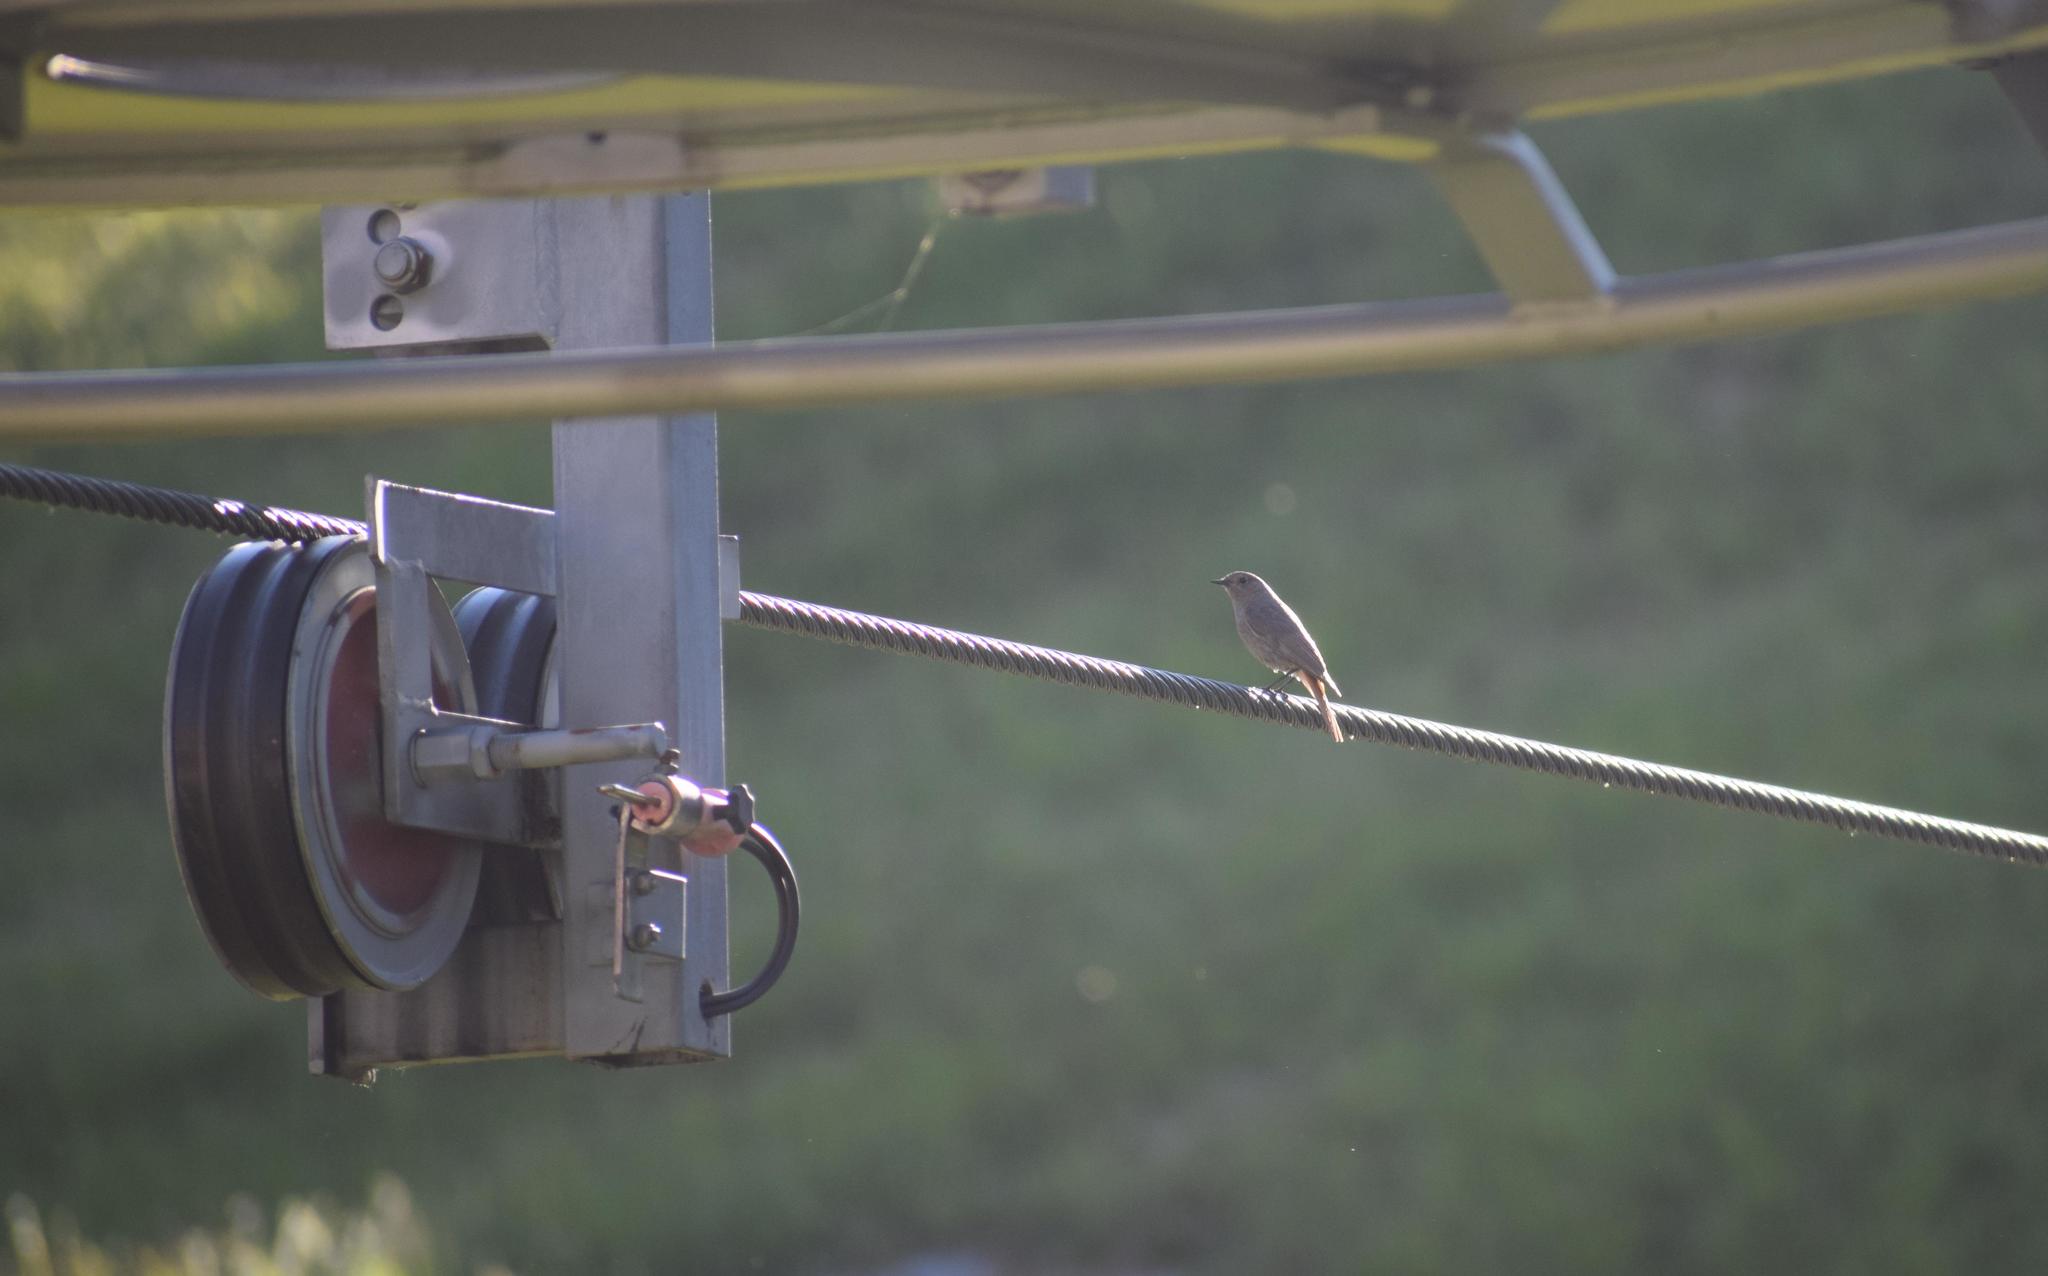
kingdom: Animalia
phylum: Chordata
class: Aves
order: Passeriformes
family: Muscicapidae
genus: Phoenicurus
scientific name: Phoenicurus ochruros
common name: Black redstart
